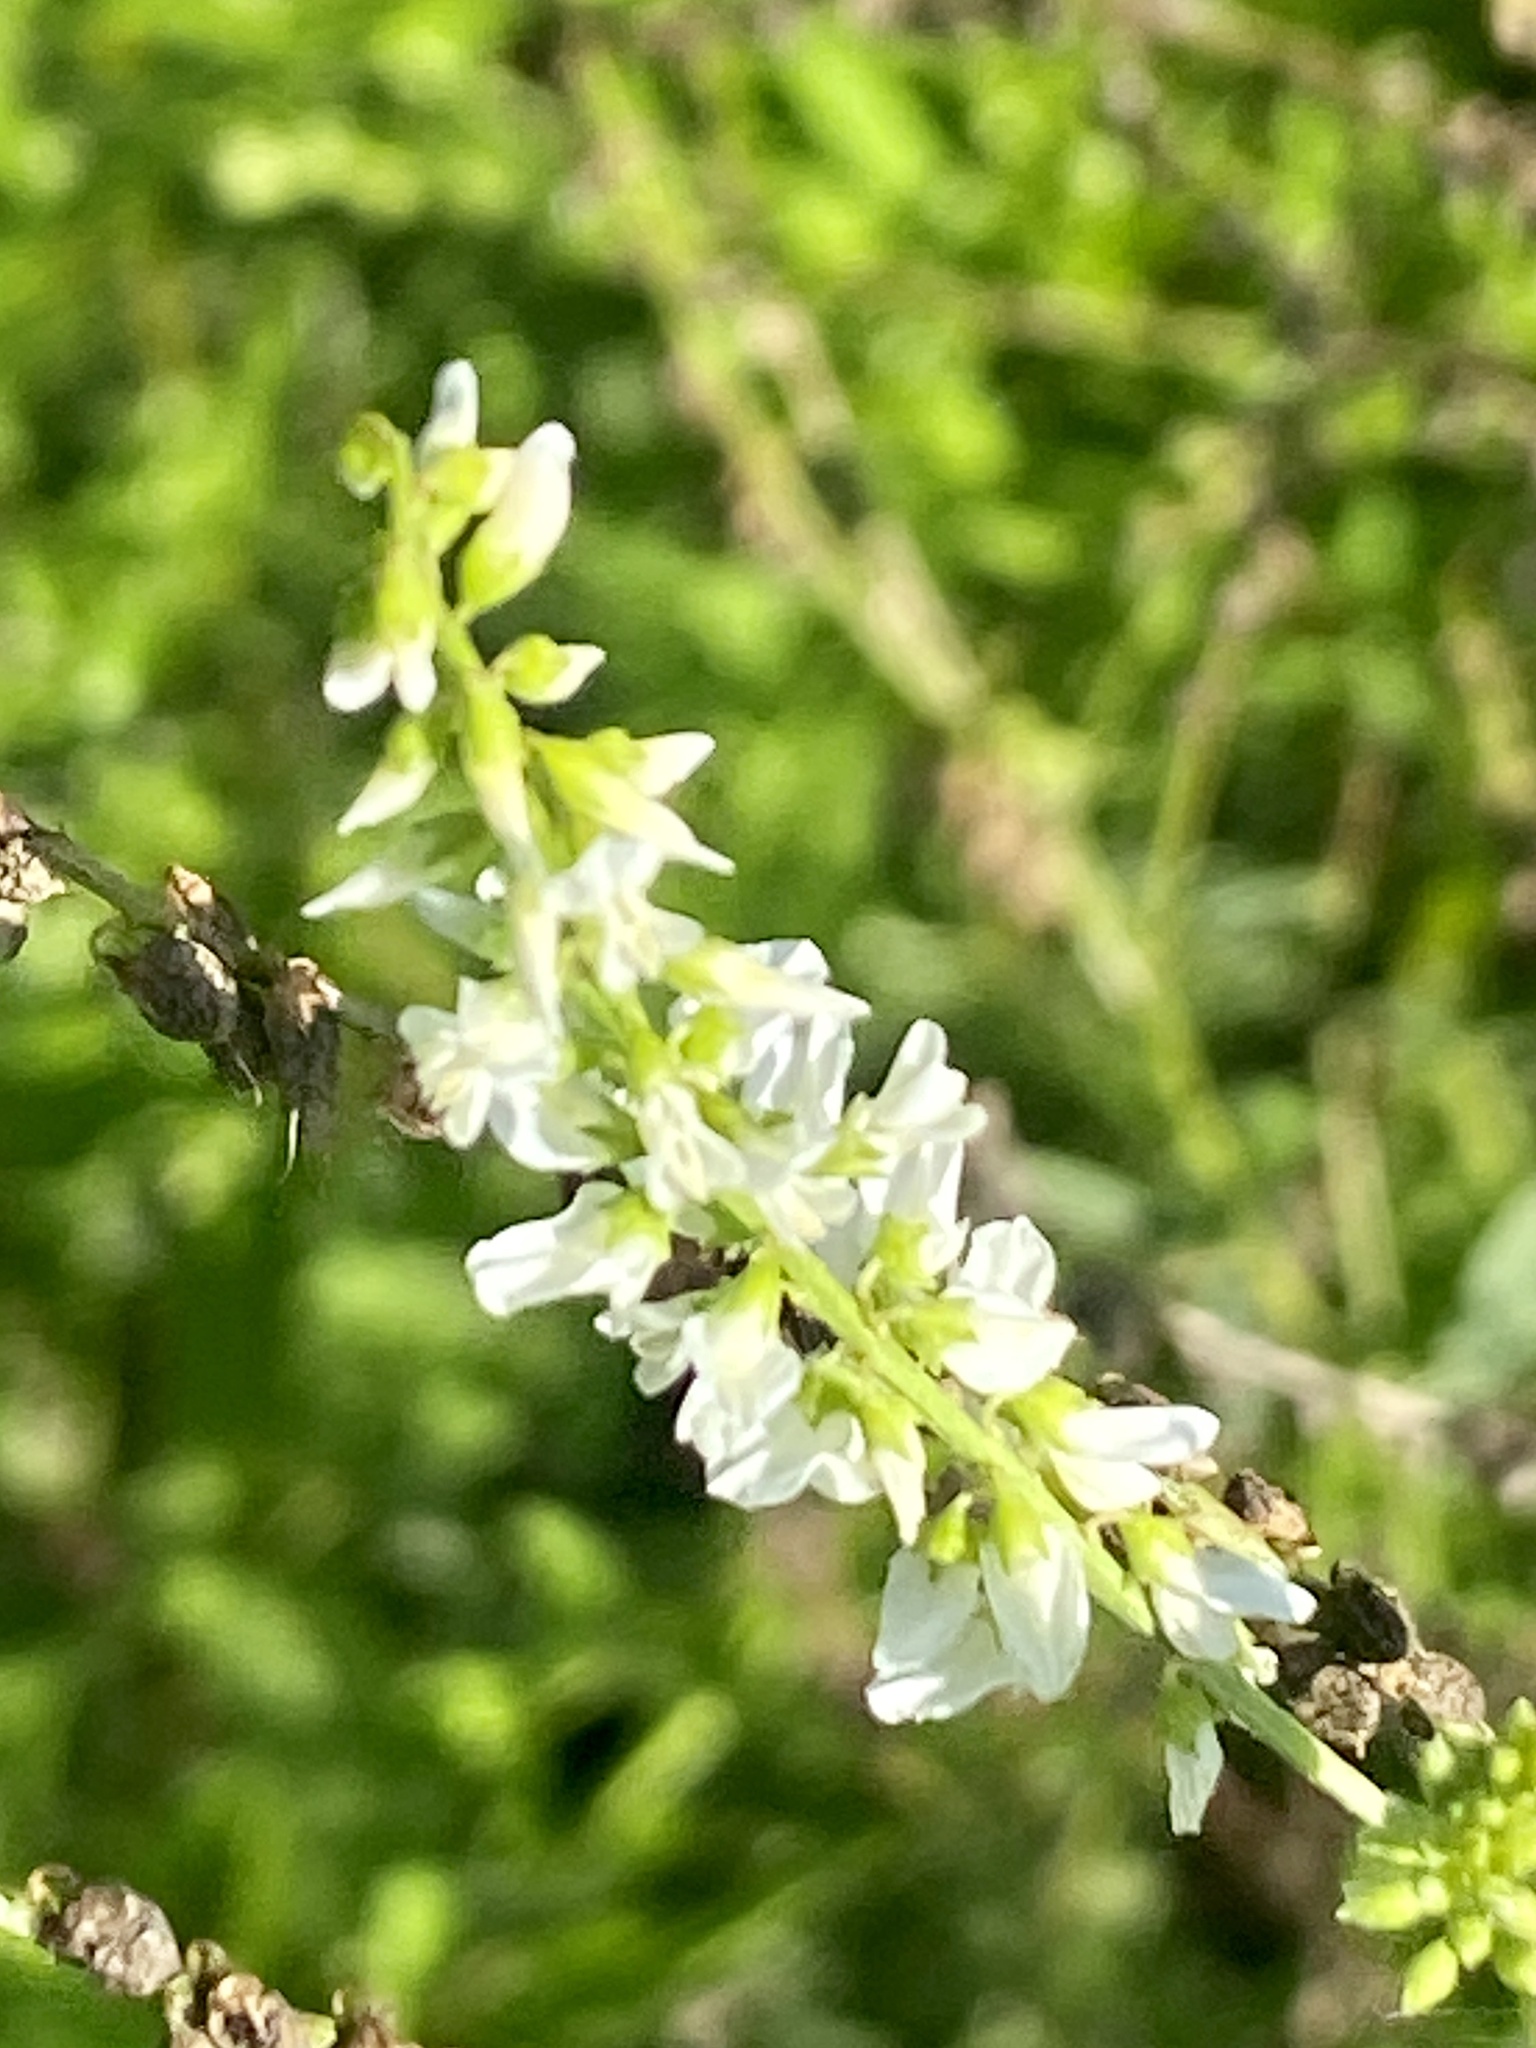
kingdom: Plantae
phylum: Tracheophyta
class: Magnoliopsida
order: Fabales
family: Fabaceae
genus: Melilotus
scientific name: Melilotus albus
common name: White melilot
